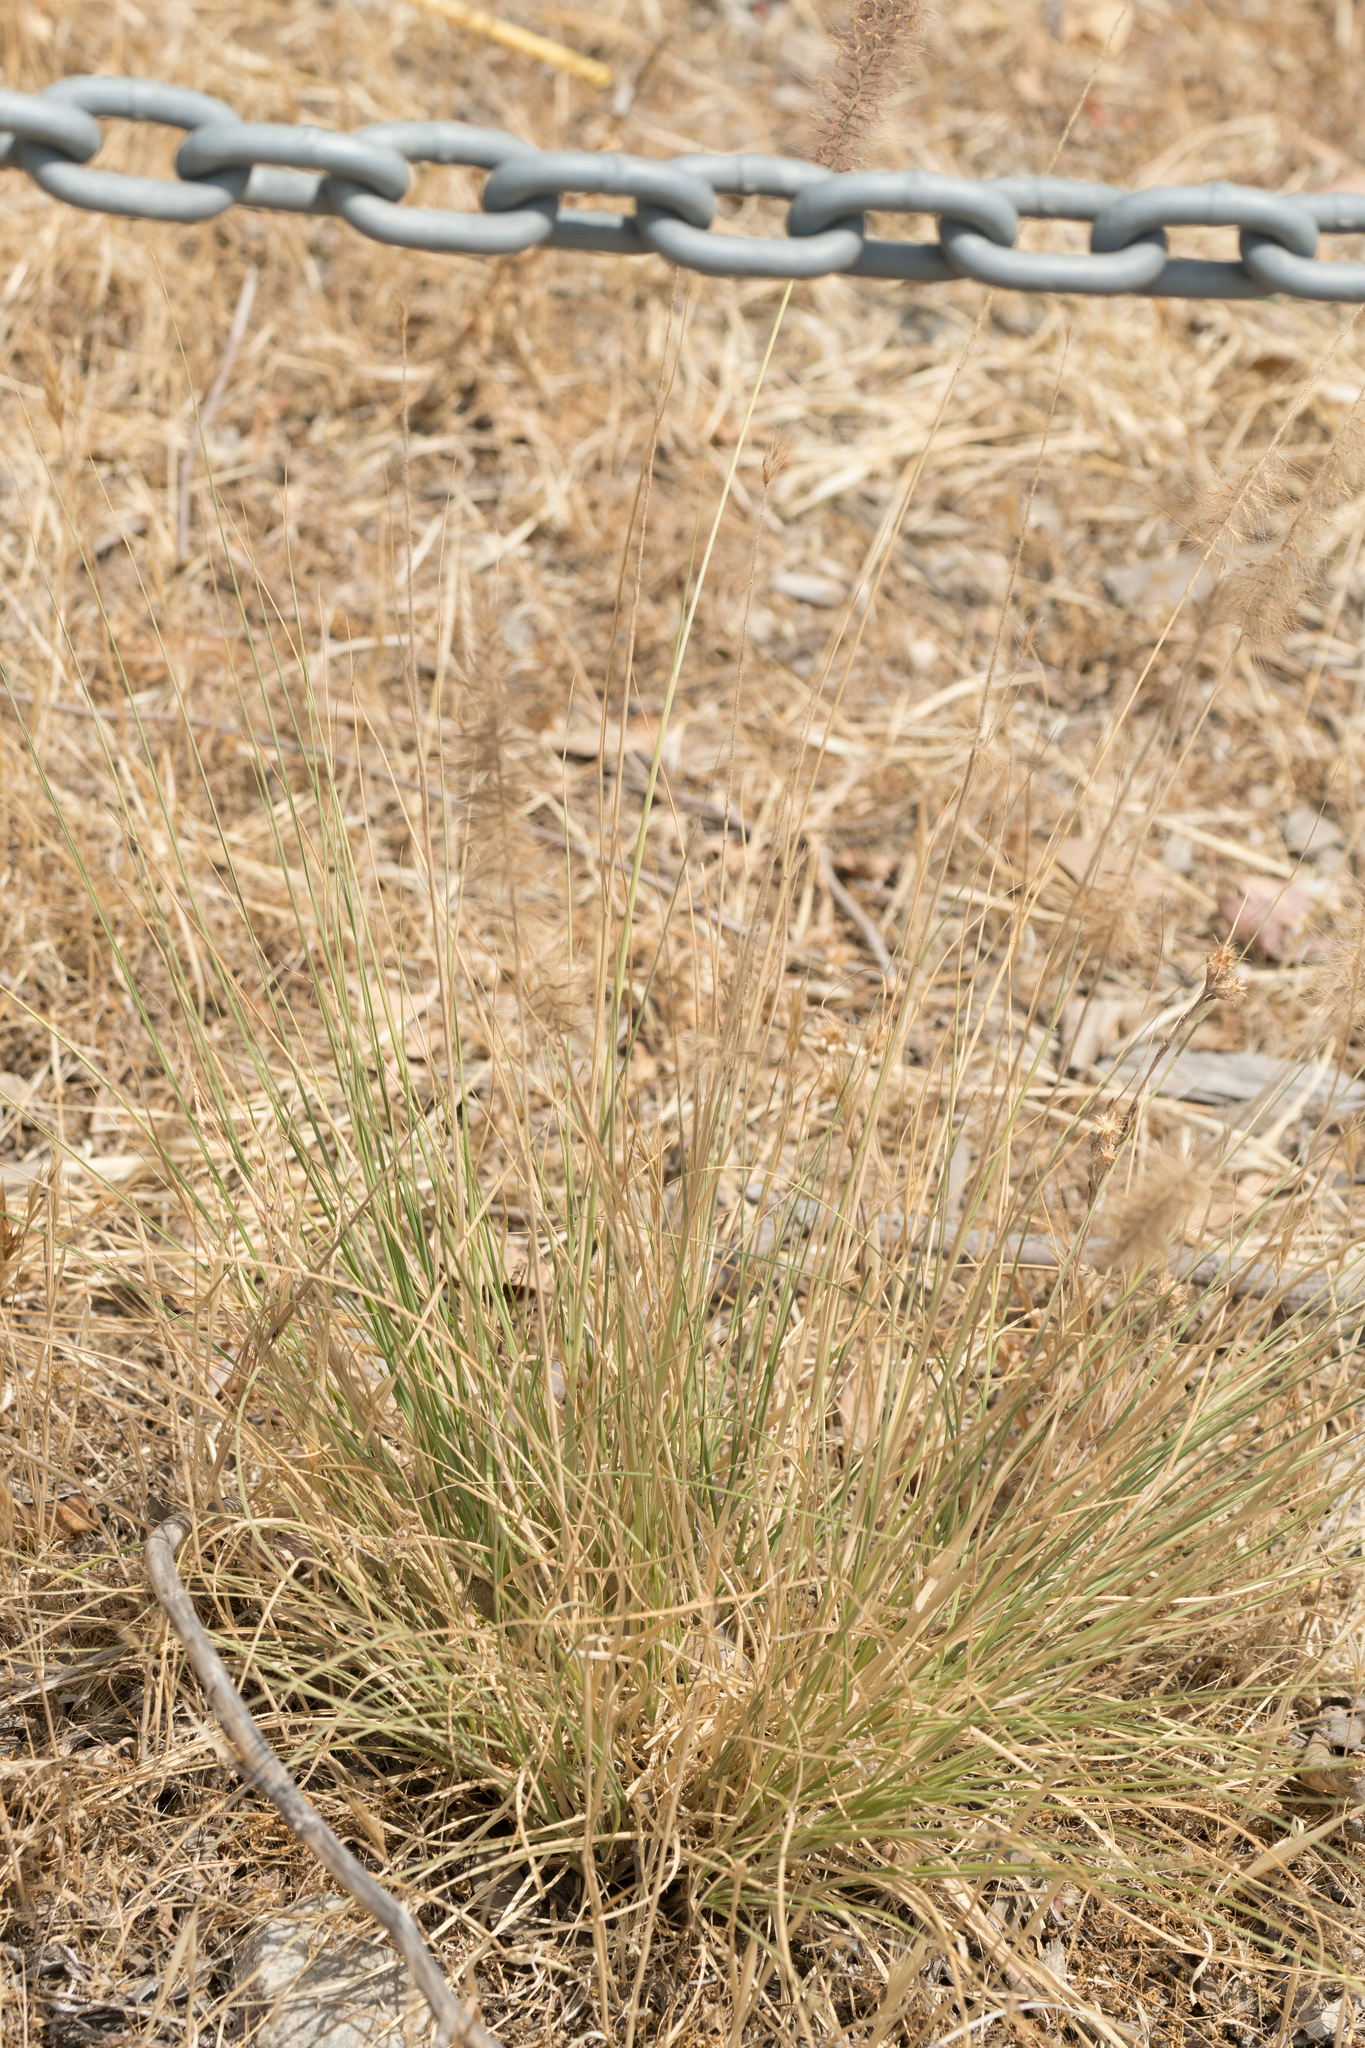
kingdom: Plantae
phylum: Tracheophyta
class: Liliopsida
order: Poales
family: Poaceae
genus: Cenchrus
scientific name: Cenchrus setaceus
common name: Crimson fountaingrass
